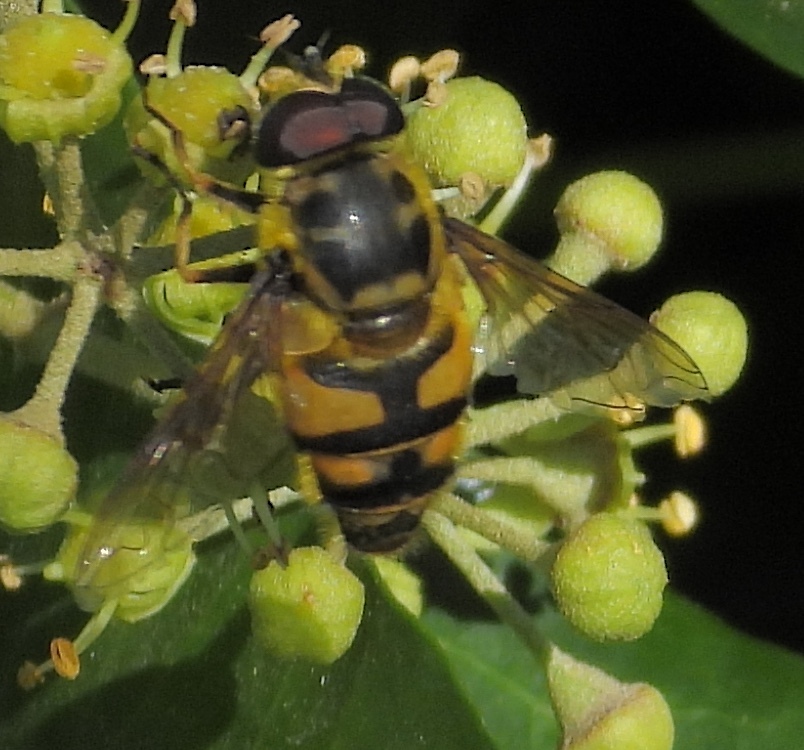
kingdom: Animalia
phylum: Arthropoda
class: Insecta
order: Diptera
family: Syrphidae
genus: Myathropa
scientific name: Myathropa florea
